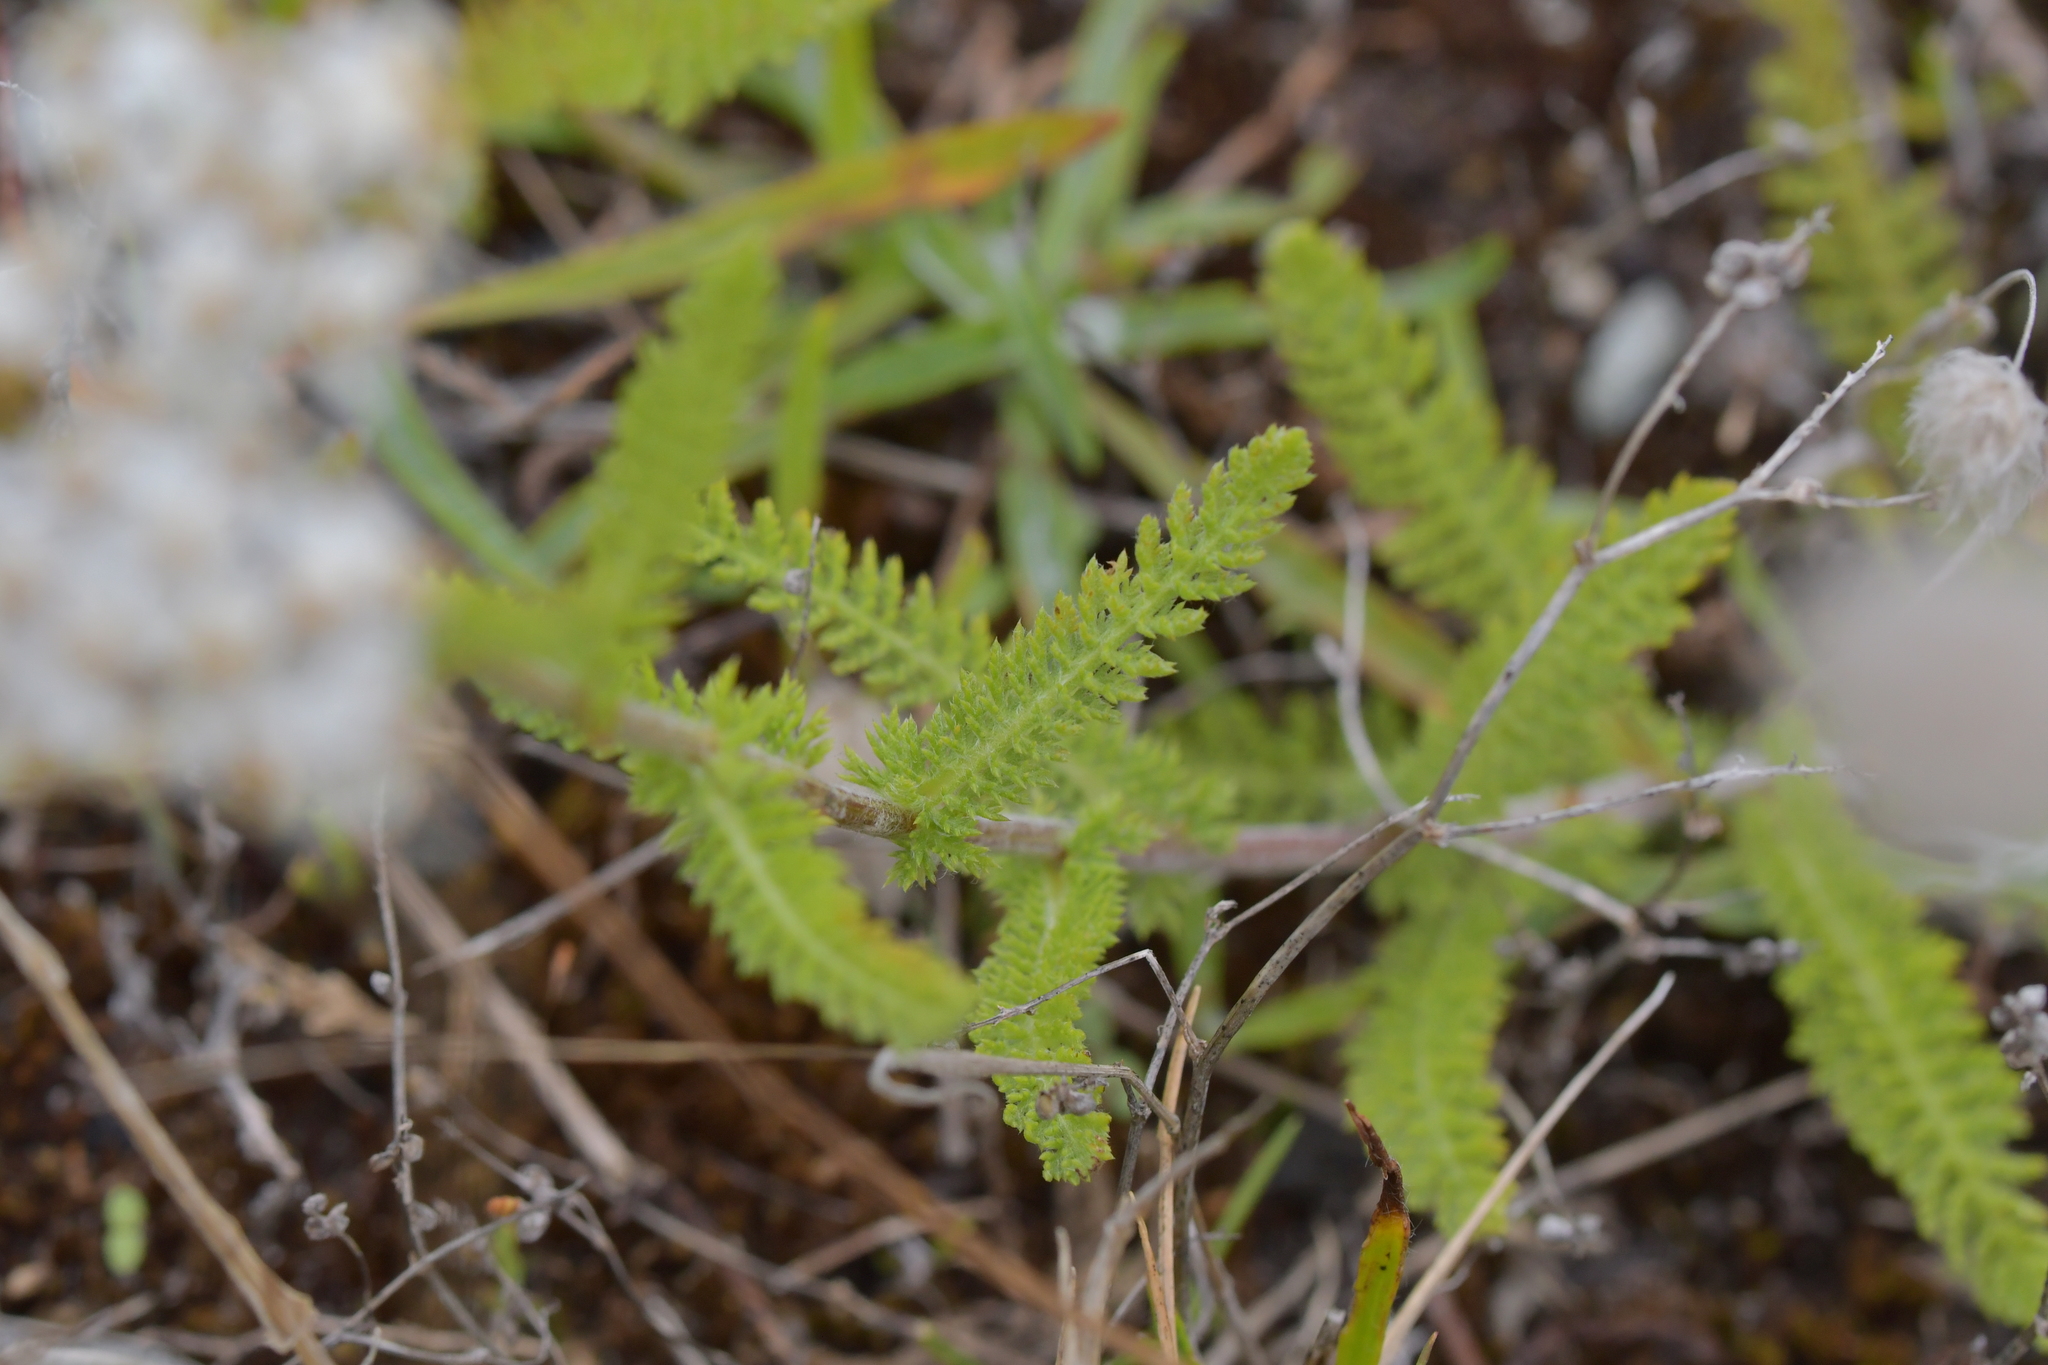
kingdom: Plantae
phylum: Tracheophyta
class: Magnoliopsida
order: Asterales
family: Asteraceae
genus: Achillea
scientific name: Achillea millefolium
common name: Yarrow
